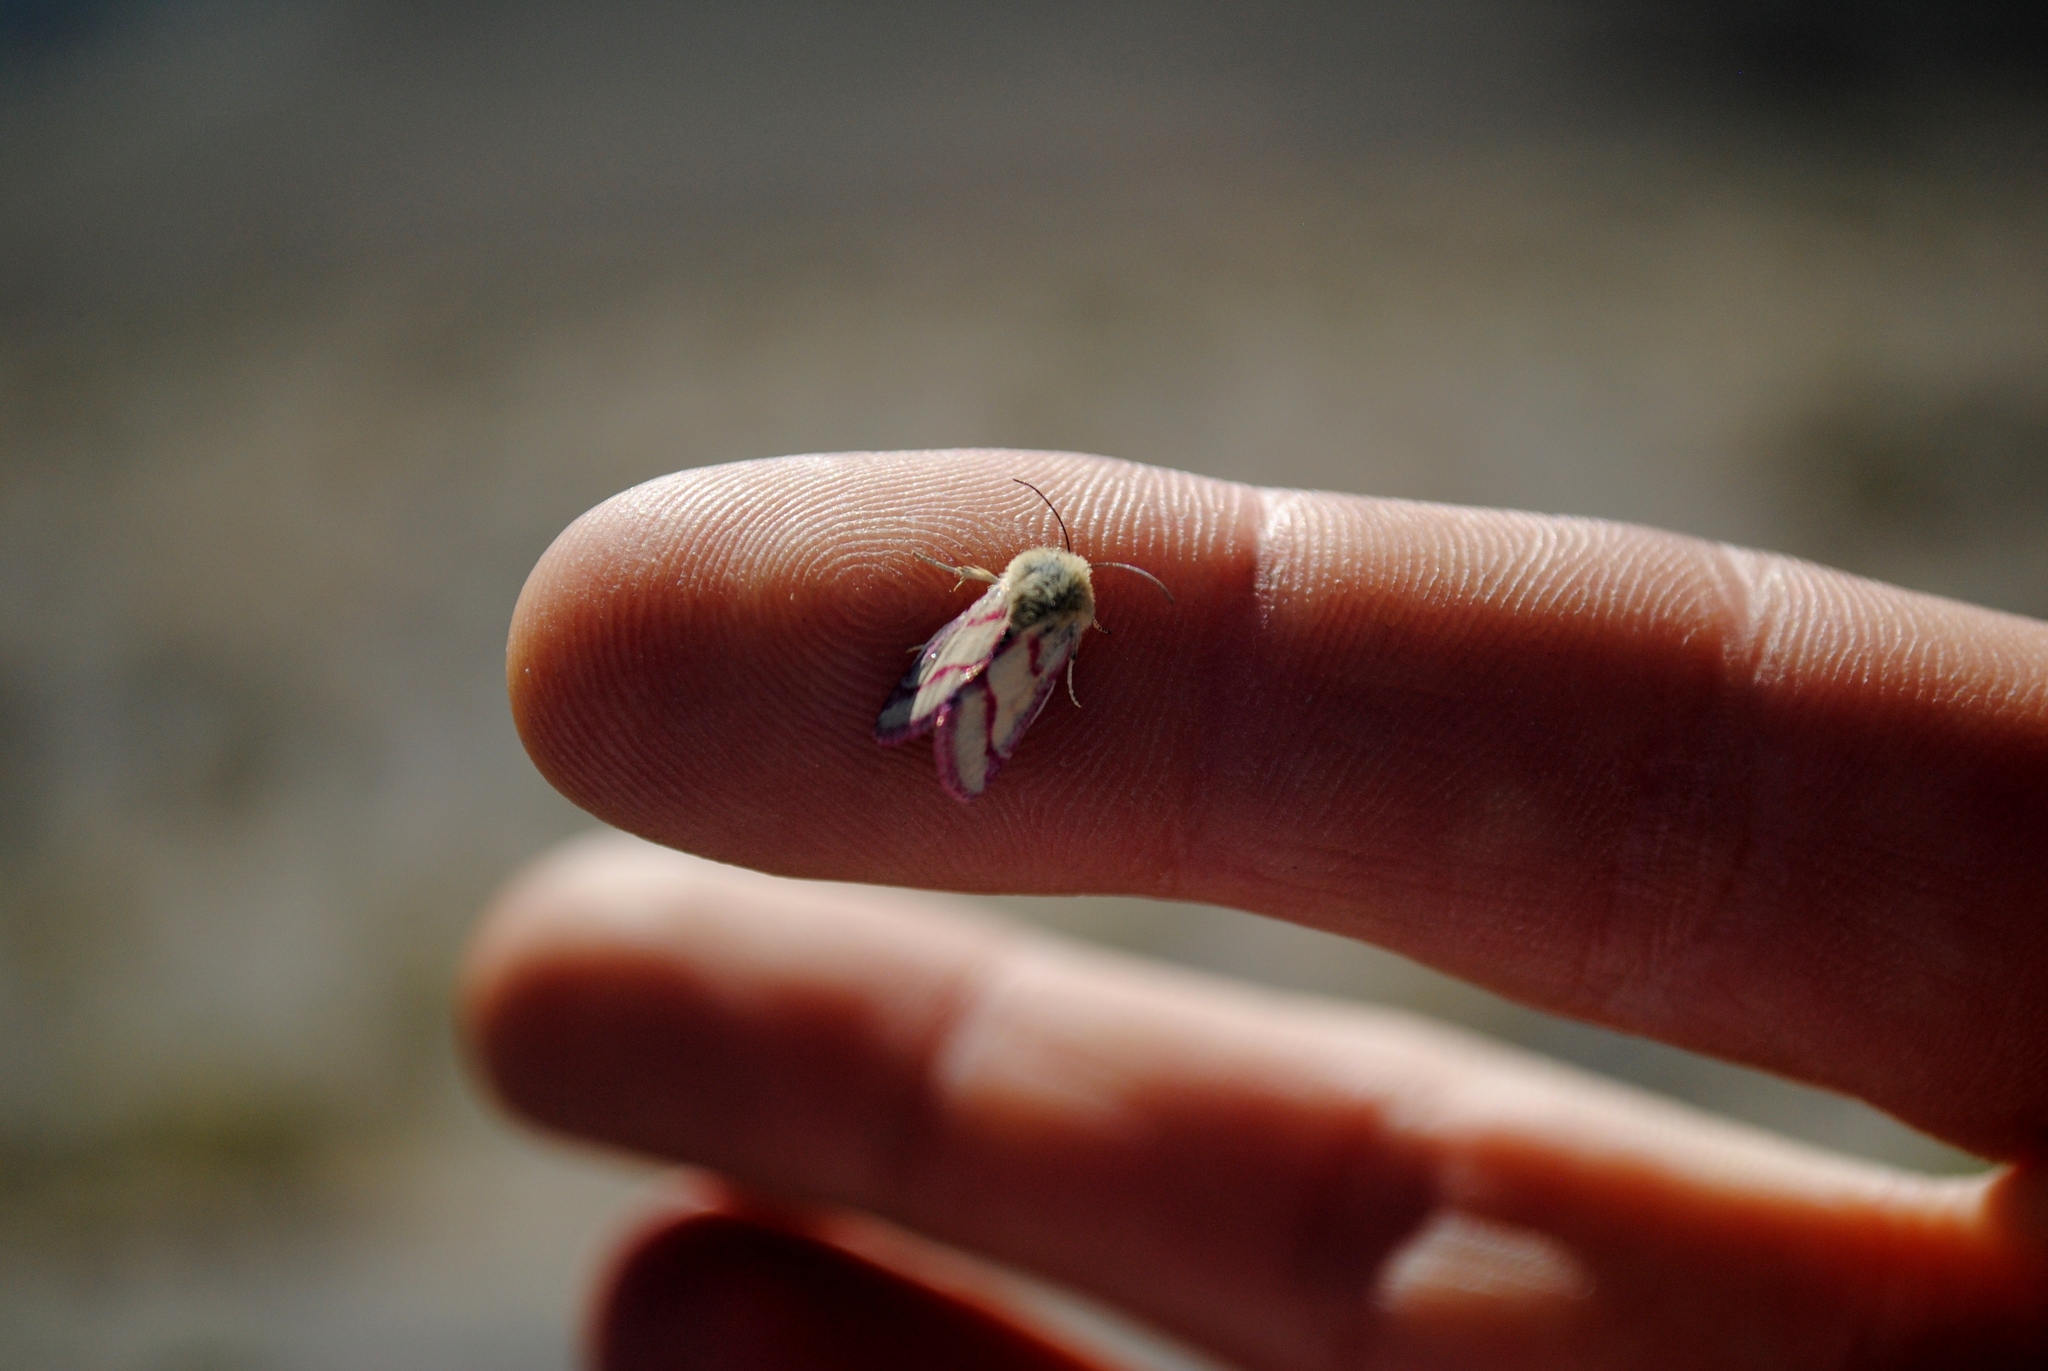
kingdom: Animalia
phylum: Arthropoda
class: Insecta
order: Lepidoptera
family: Noctuidae
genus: Heliolonche
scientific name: Heliolonche pictipennis
